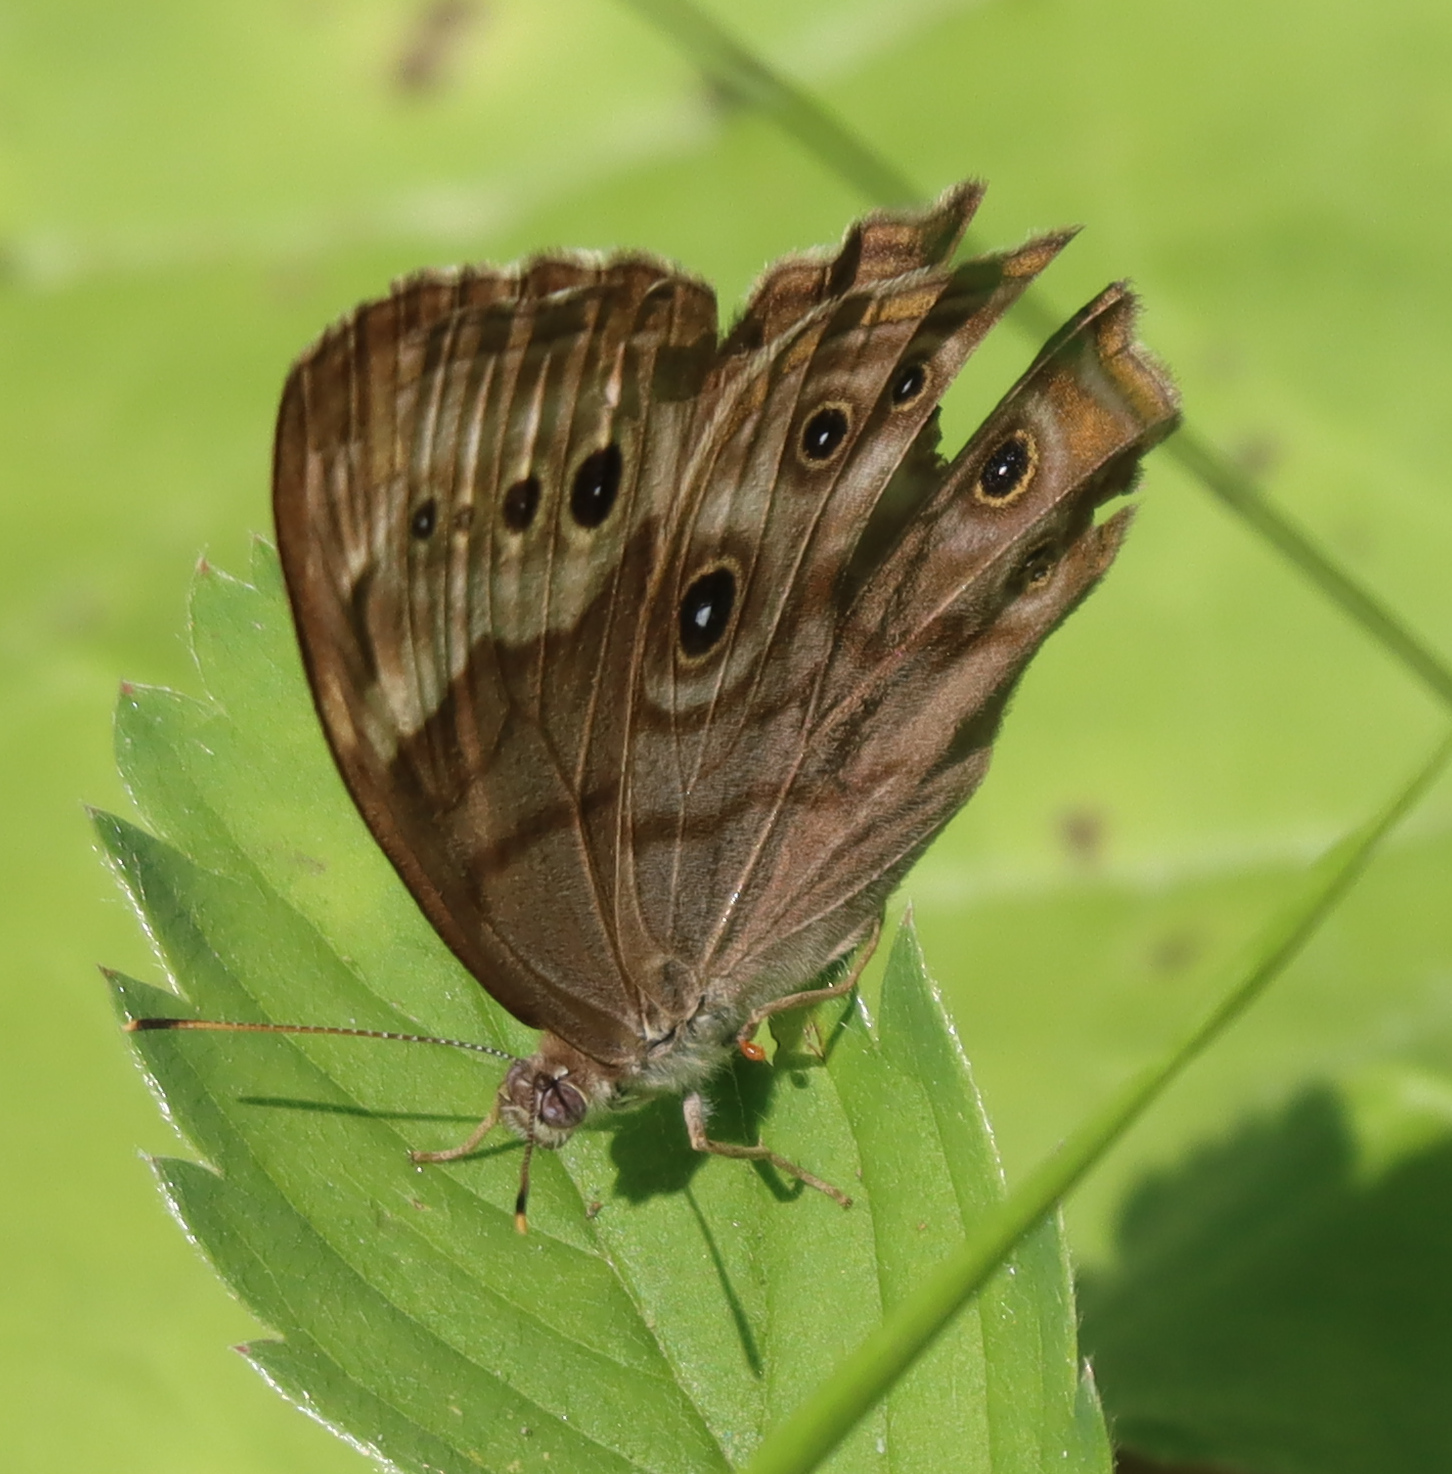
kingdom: Animalia
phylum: Arthropoda
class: Insecta
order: Lepidoptera
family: Nymphalidae
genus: Lethe
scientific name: Lethe anthedon
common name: Northern pearly-eye
